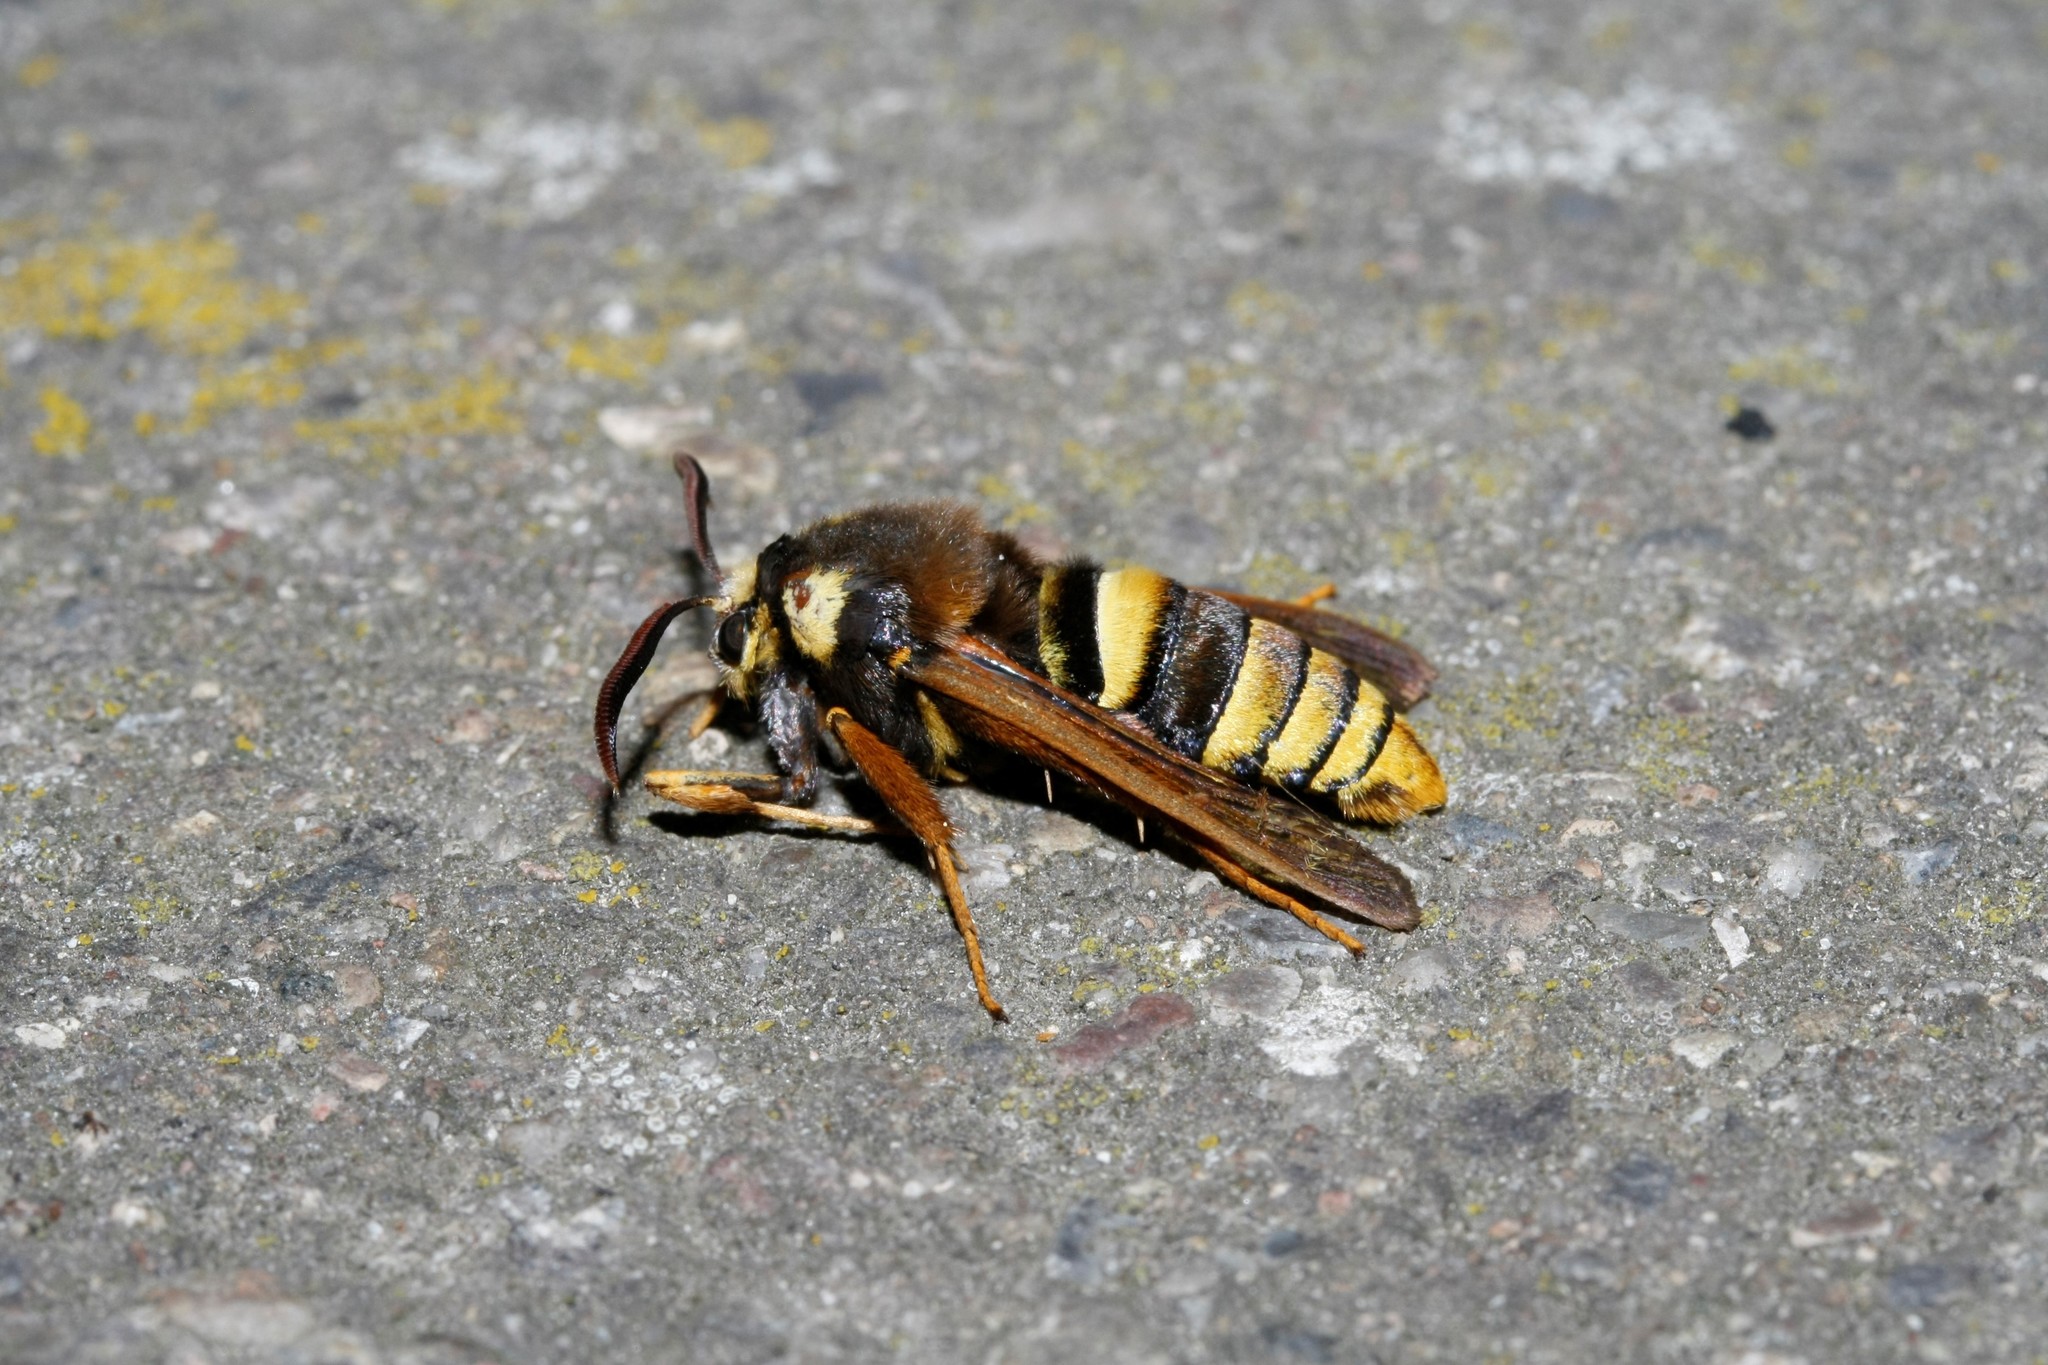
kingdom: Animalia
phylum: Arthropoda
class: Insecta
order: Lepidoptera
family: Sesiidae
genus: Sesia
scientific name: Sesia apiformis
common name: Hornet moth
